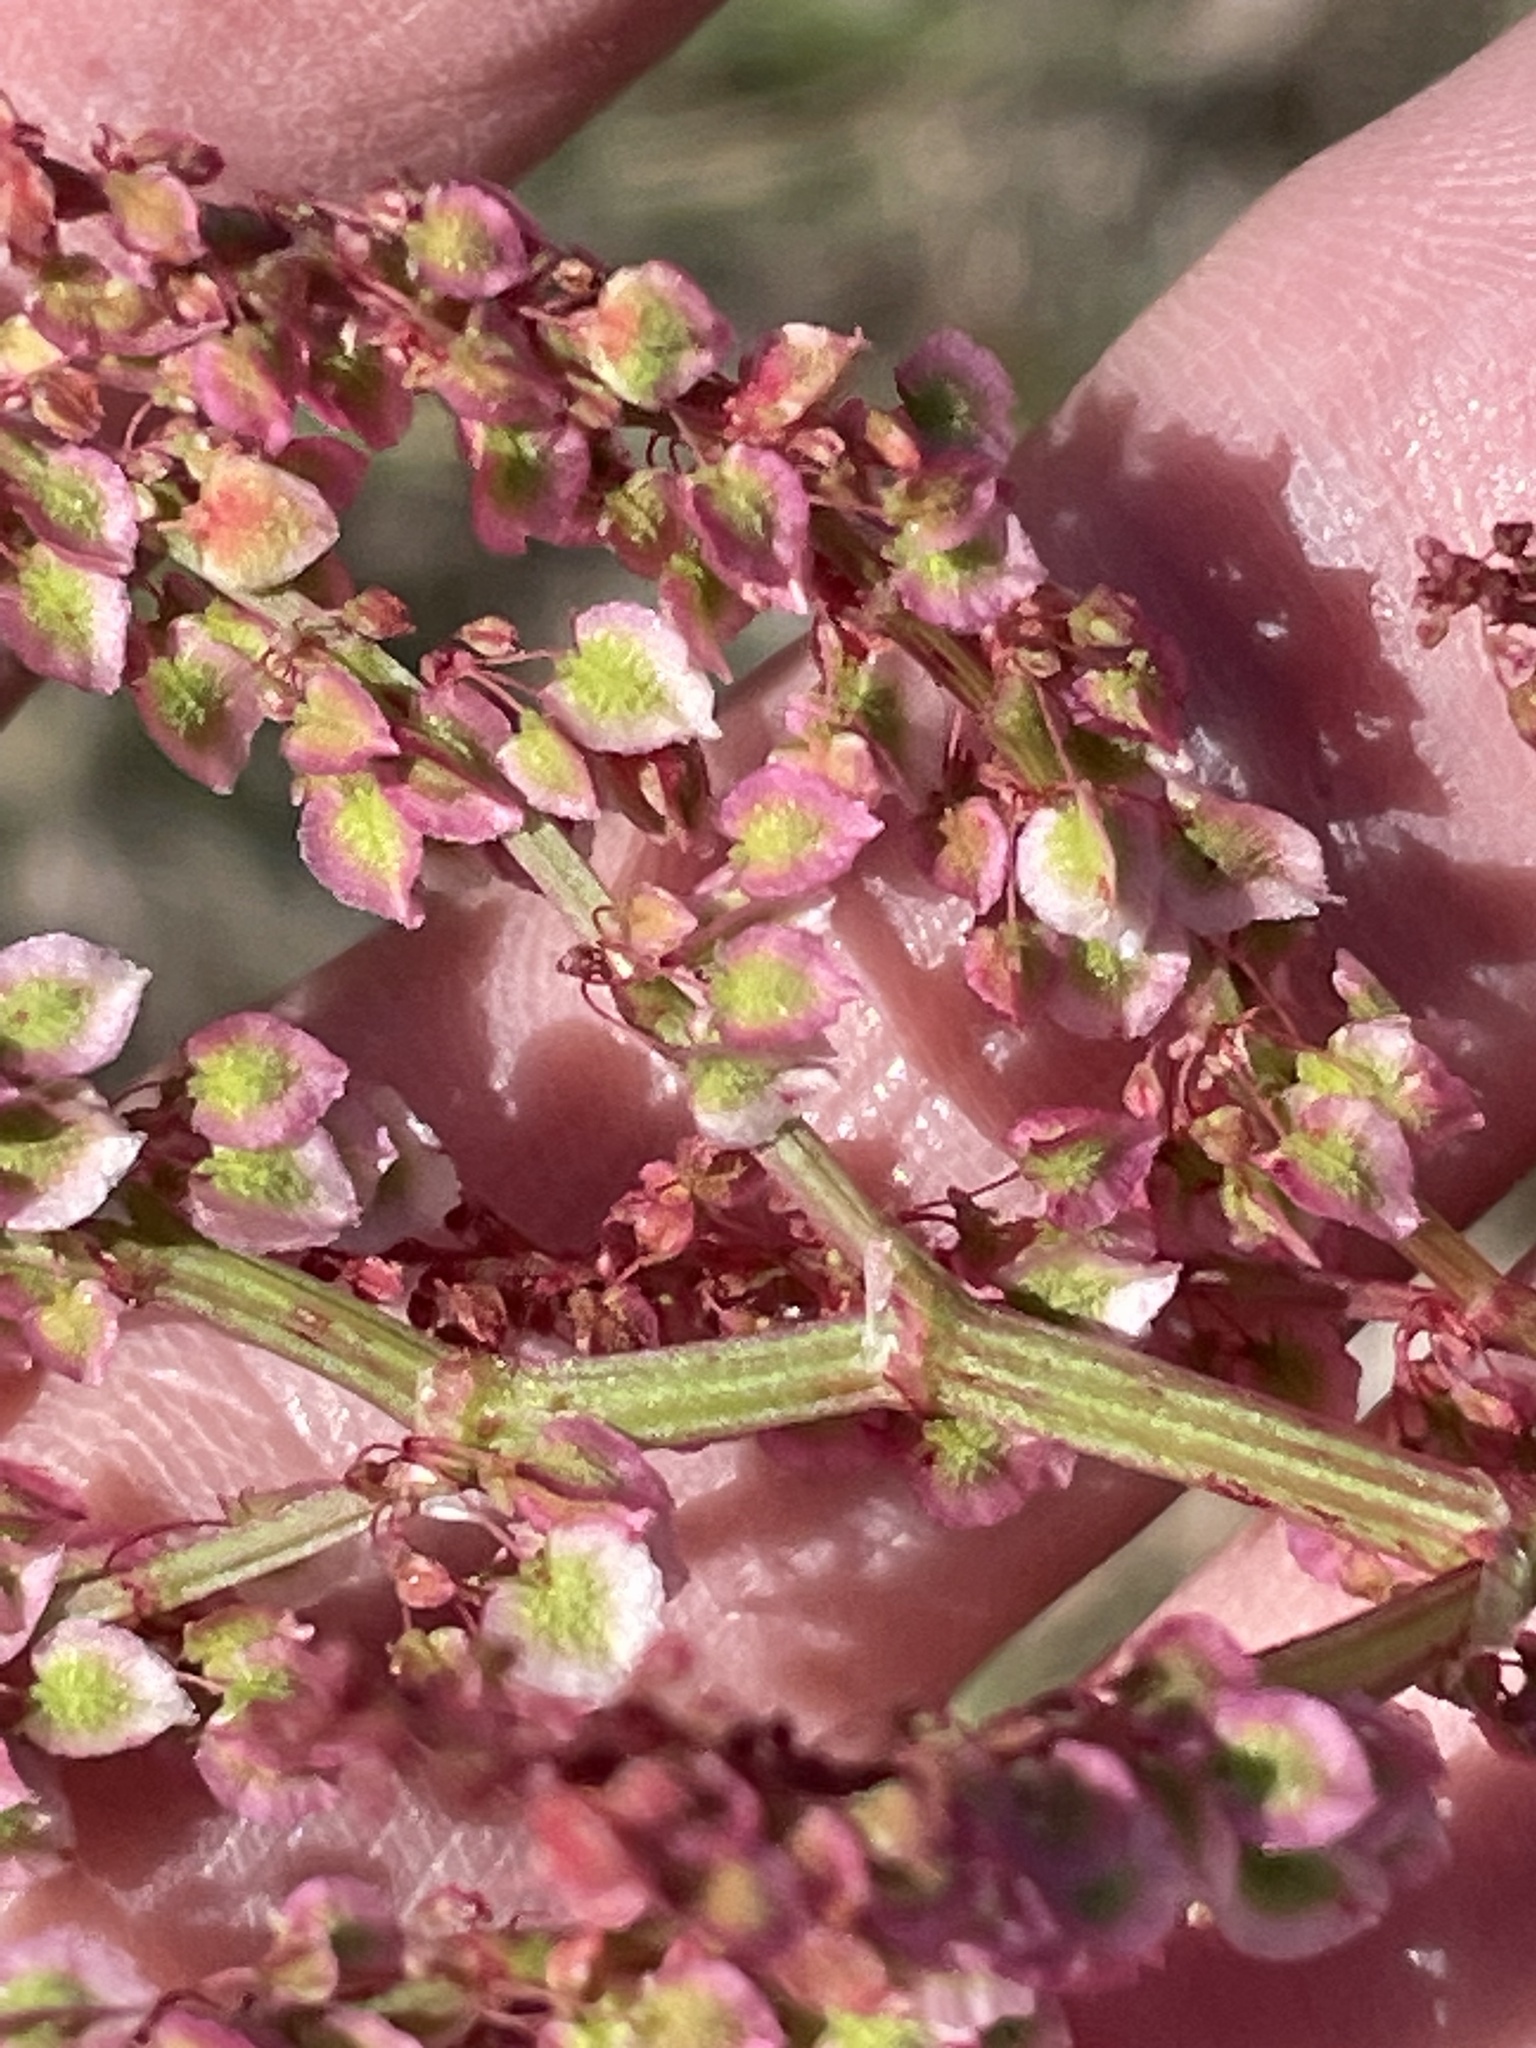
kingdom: Plantae
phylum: Tracheophyta
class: Magnoliopsida
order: Caryophyllales
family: Polygonaceae
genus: Rumex
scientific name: Rumex hastatulus
